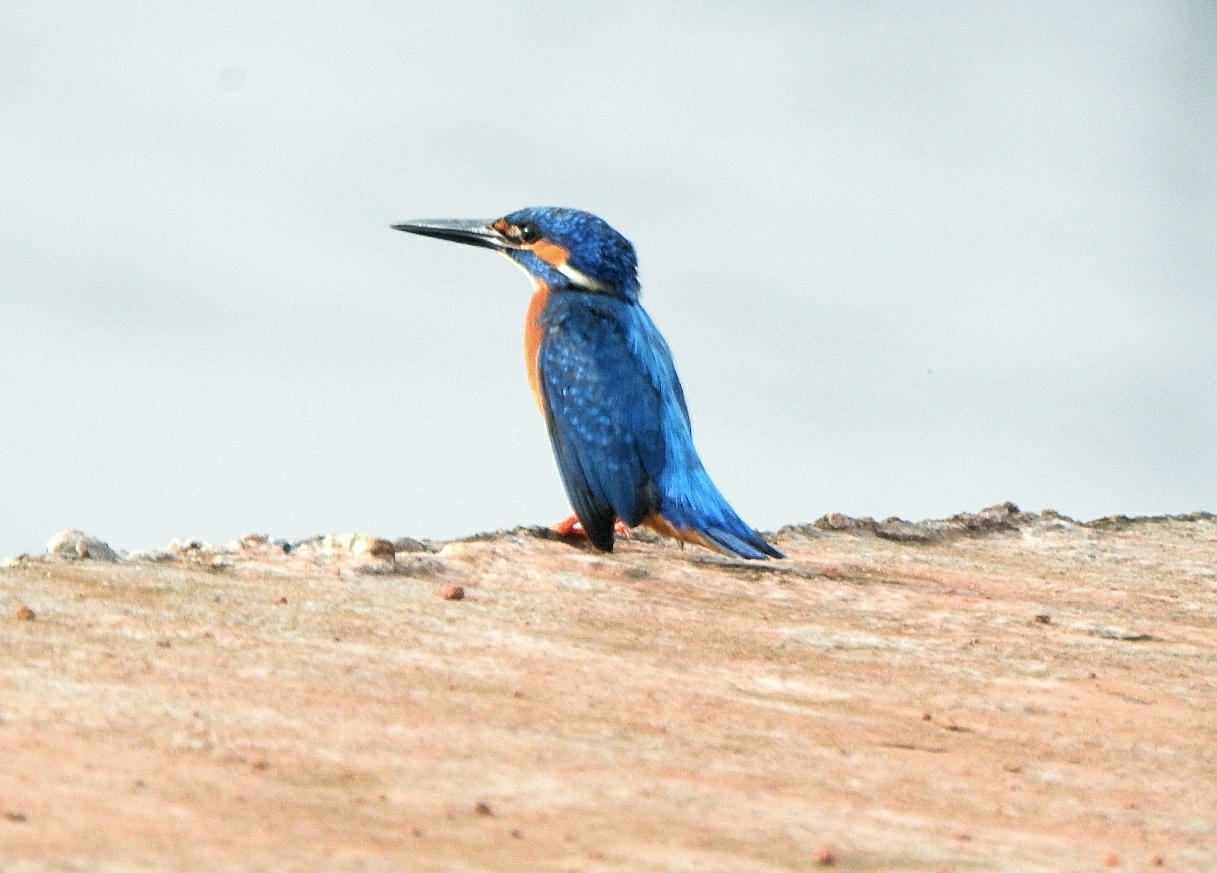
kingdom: Animalia
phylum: Chordata
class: Aves
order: Coraciiformes
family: Alcedinidae
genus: Alcedo
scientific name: Alcedo atthis
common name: Common kingfisher
